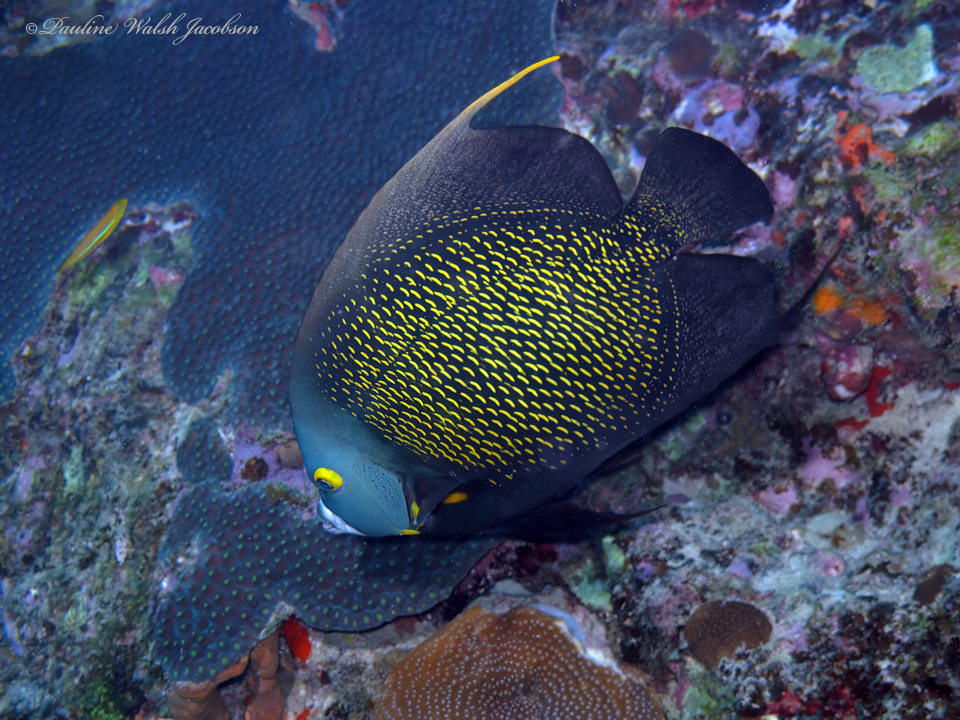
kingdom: Animalia
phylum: Chordata
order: Perciformes
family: Pomacanthidae
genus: Pomacanthus
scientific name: Pomacanthus paru
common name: French angelfish
